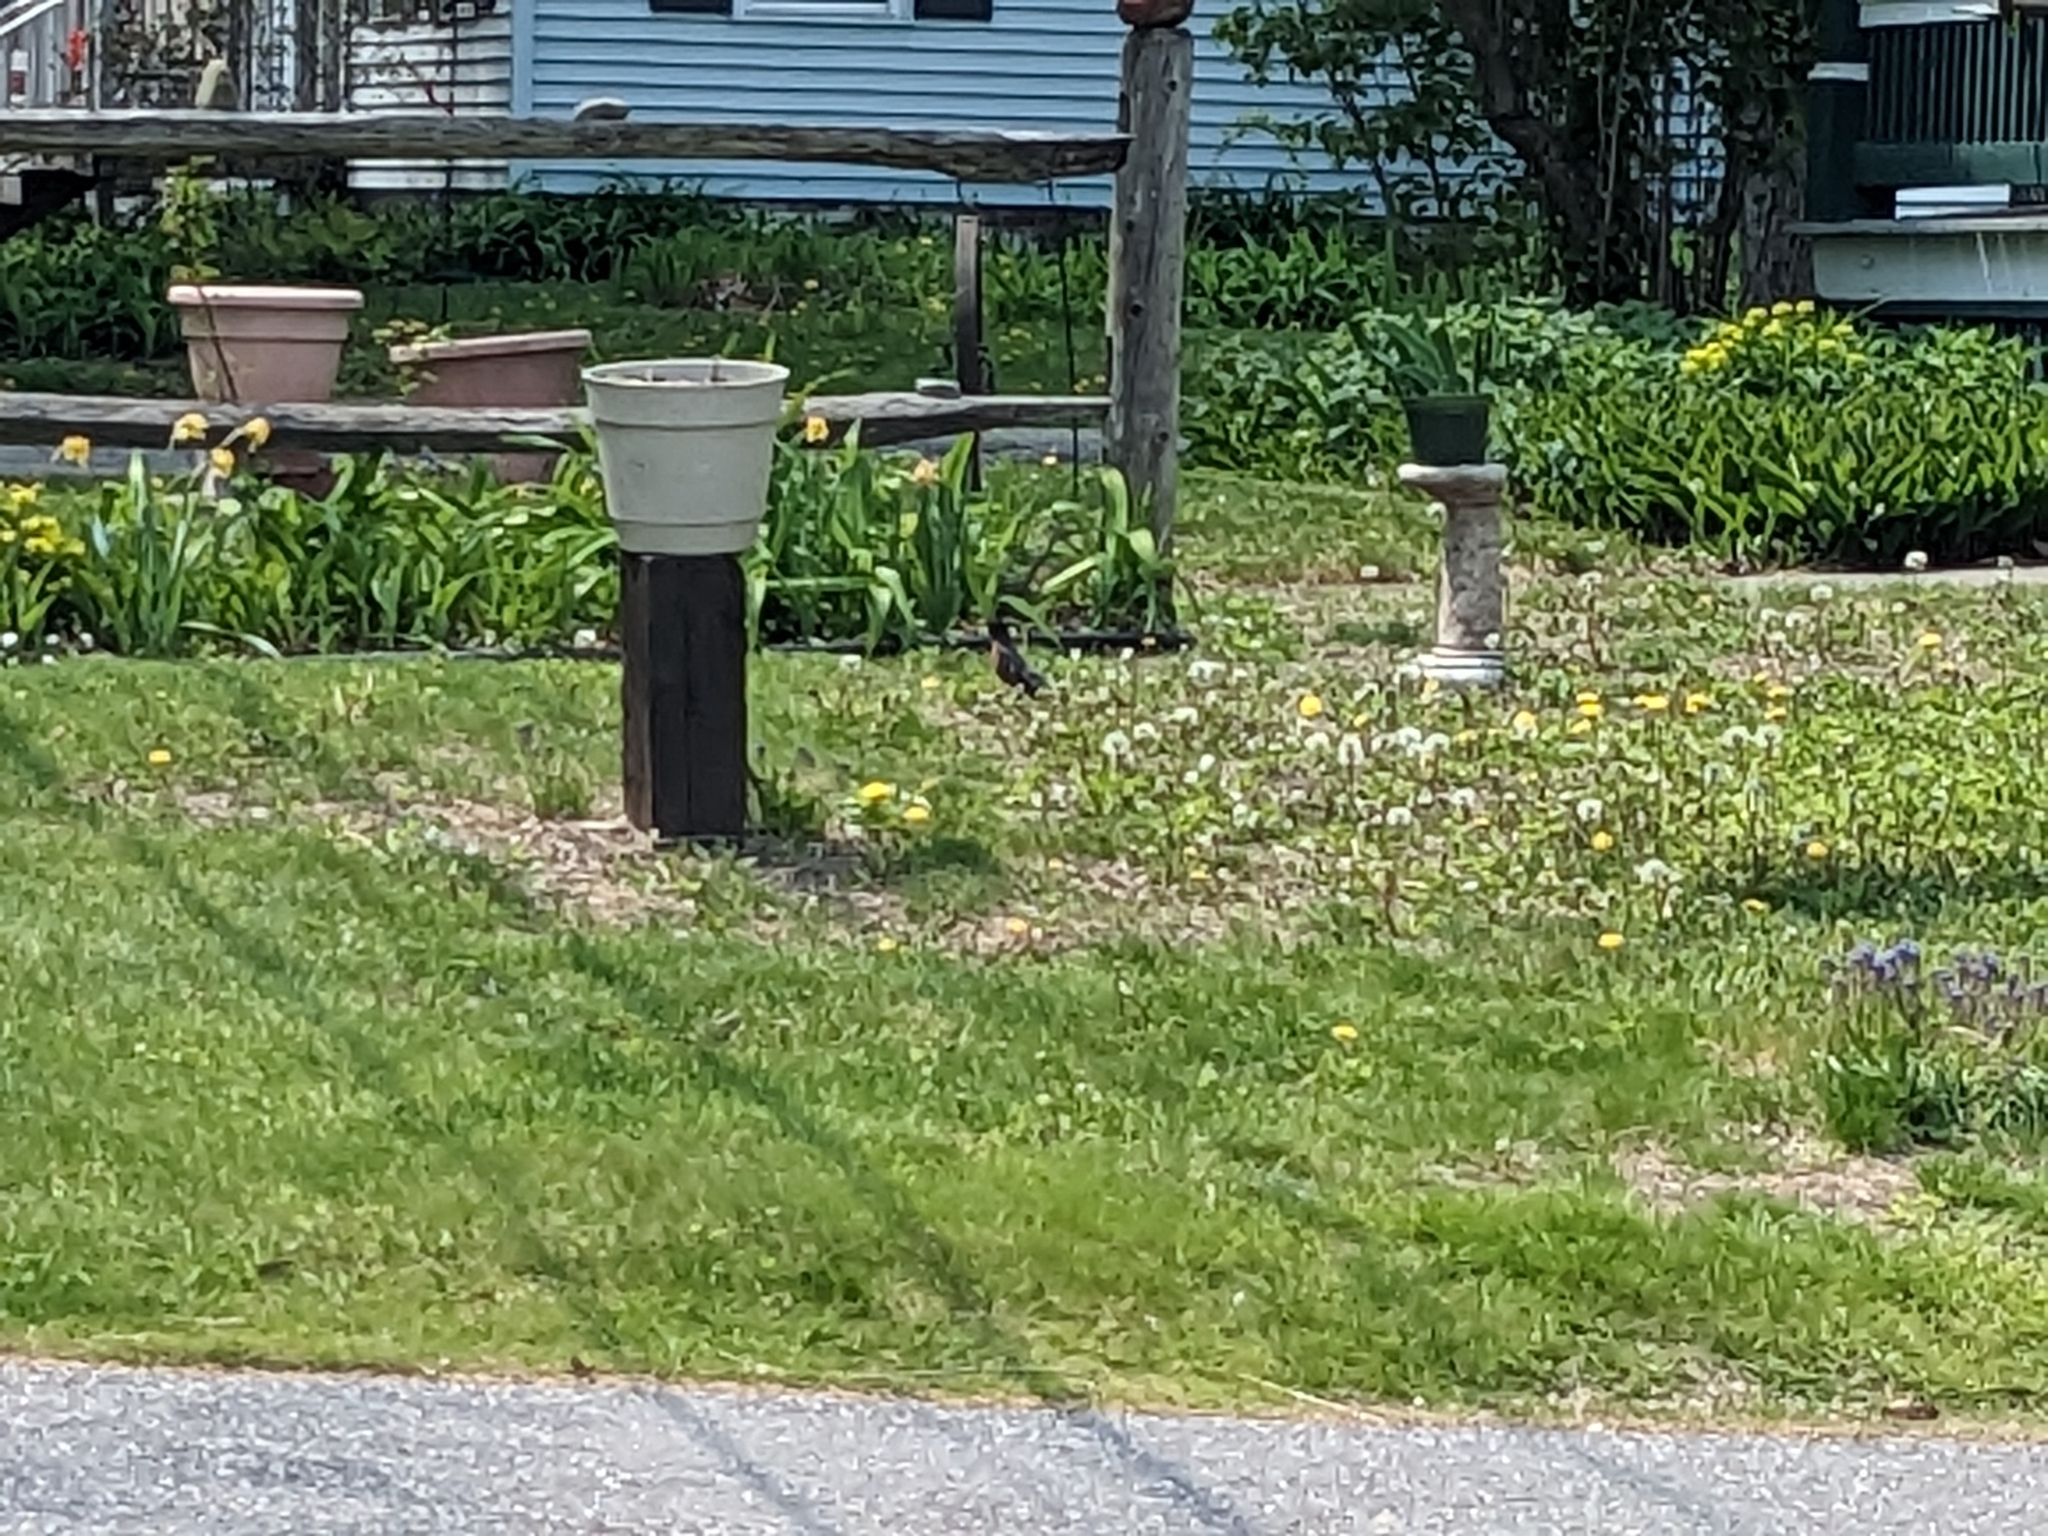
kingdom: Animalia
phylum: Chordata
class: Aves
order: Passeriformes
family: Turdidae
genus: Turdus
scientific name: Turdus migratorius
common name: American robin
